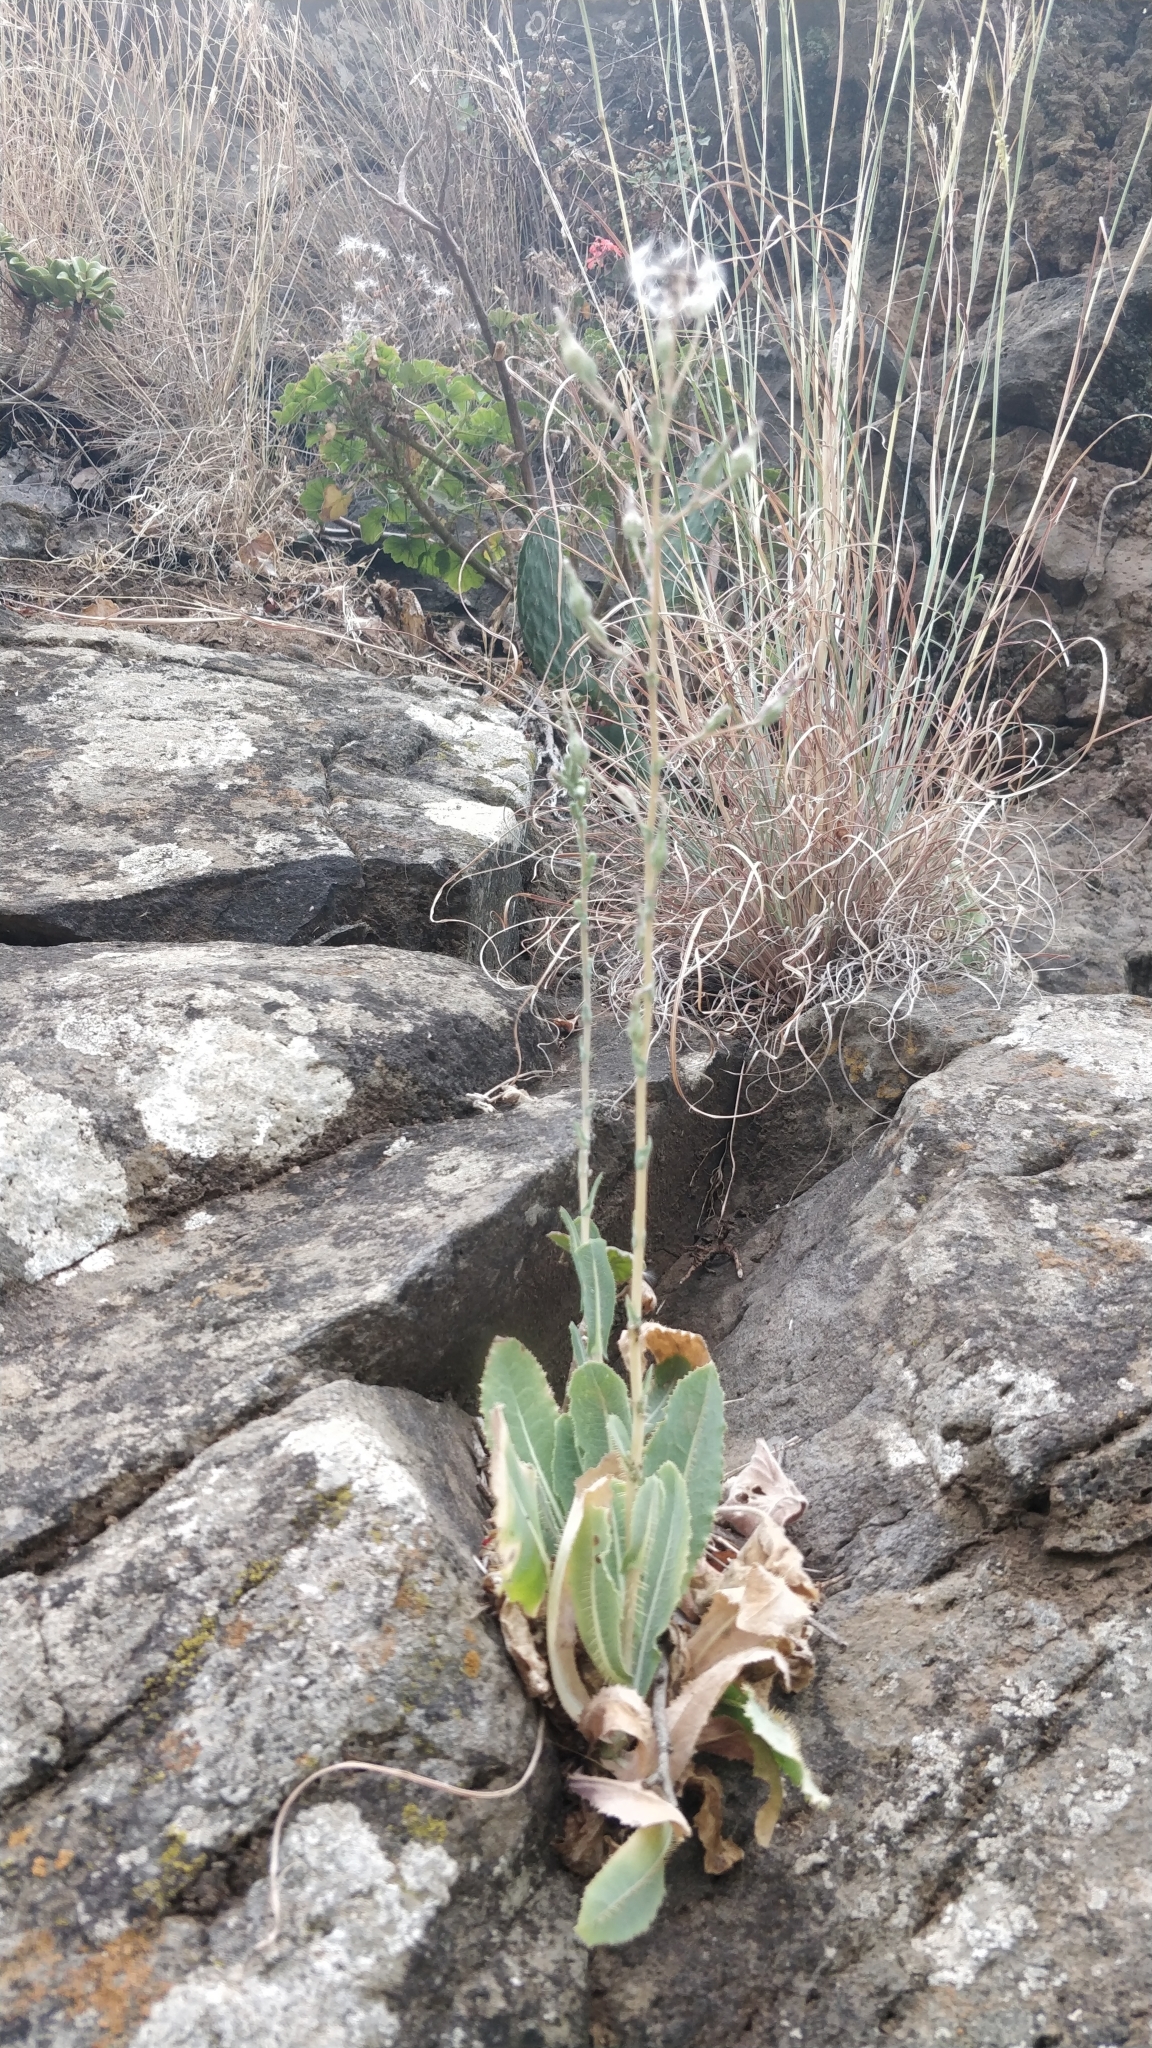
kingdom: Plantae
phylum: Tracheophyta
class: Magnoliopsida
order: Asterales
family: Asteraceae
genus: Lactuca
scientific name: Lactuca serriola
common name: Prickly lettuce
